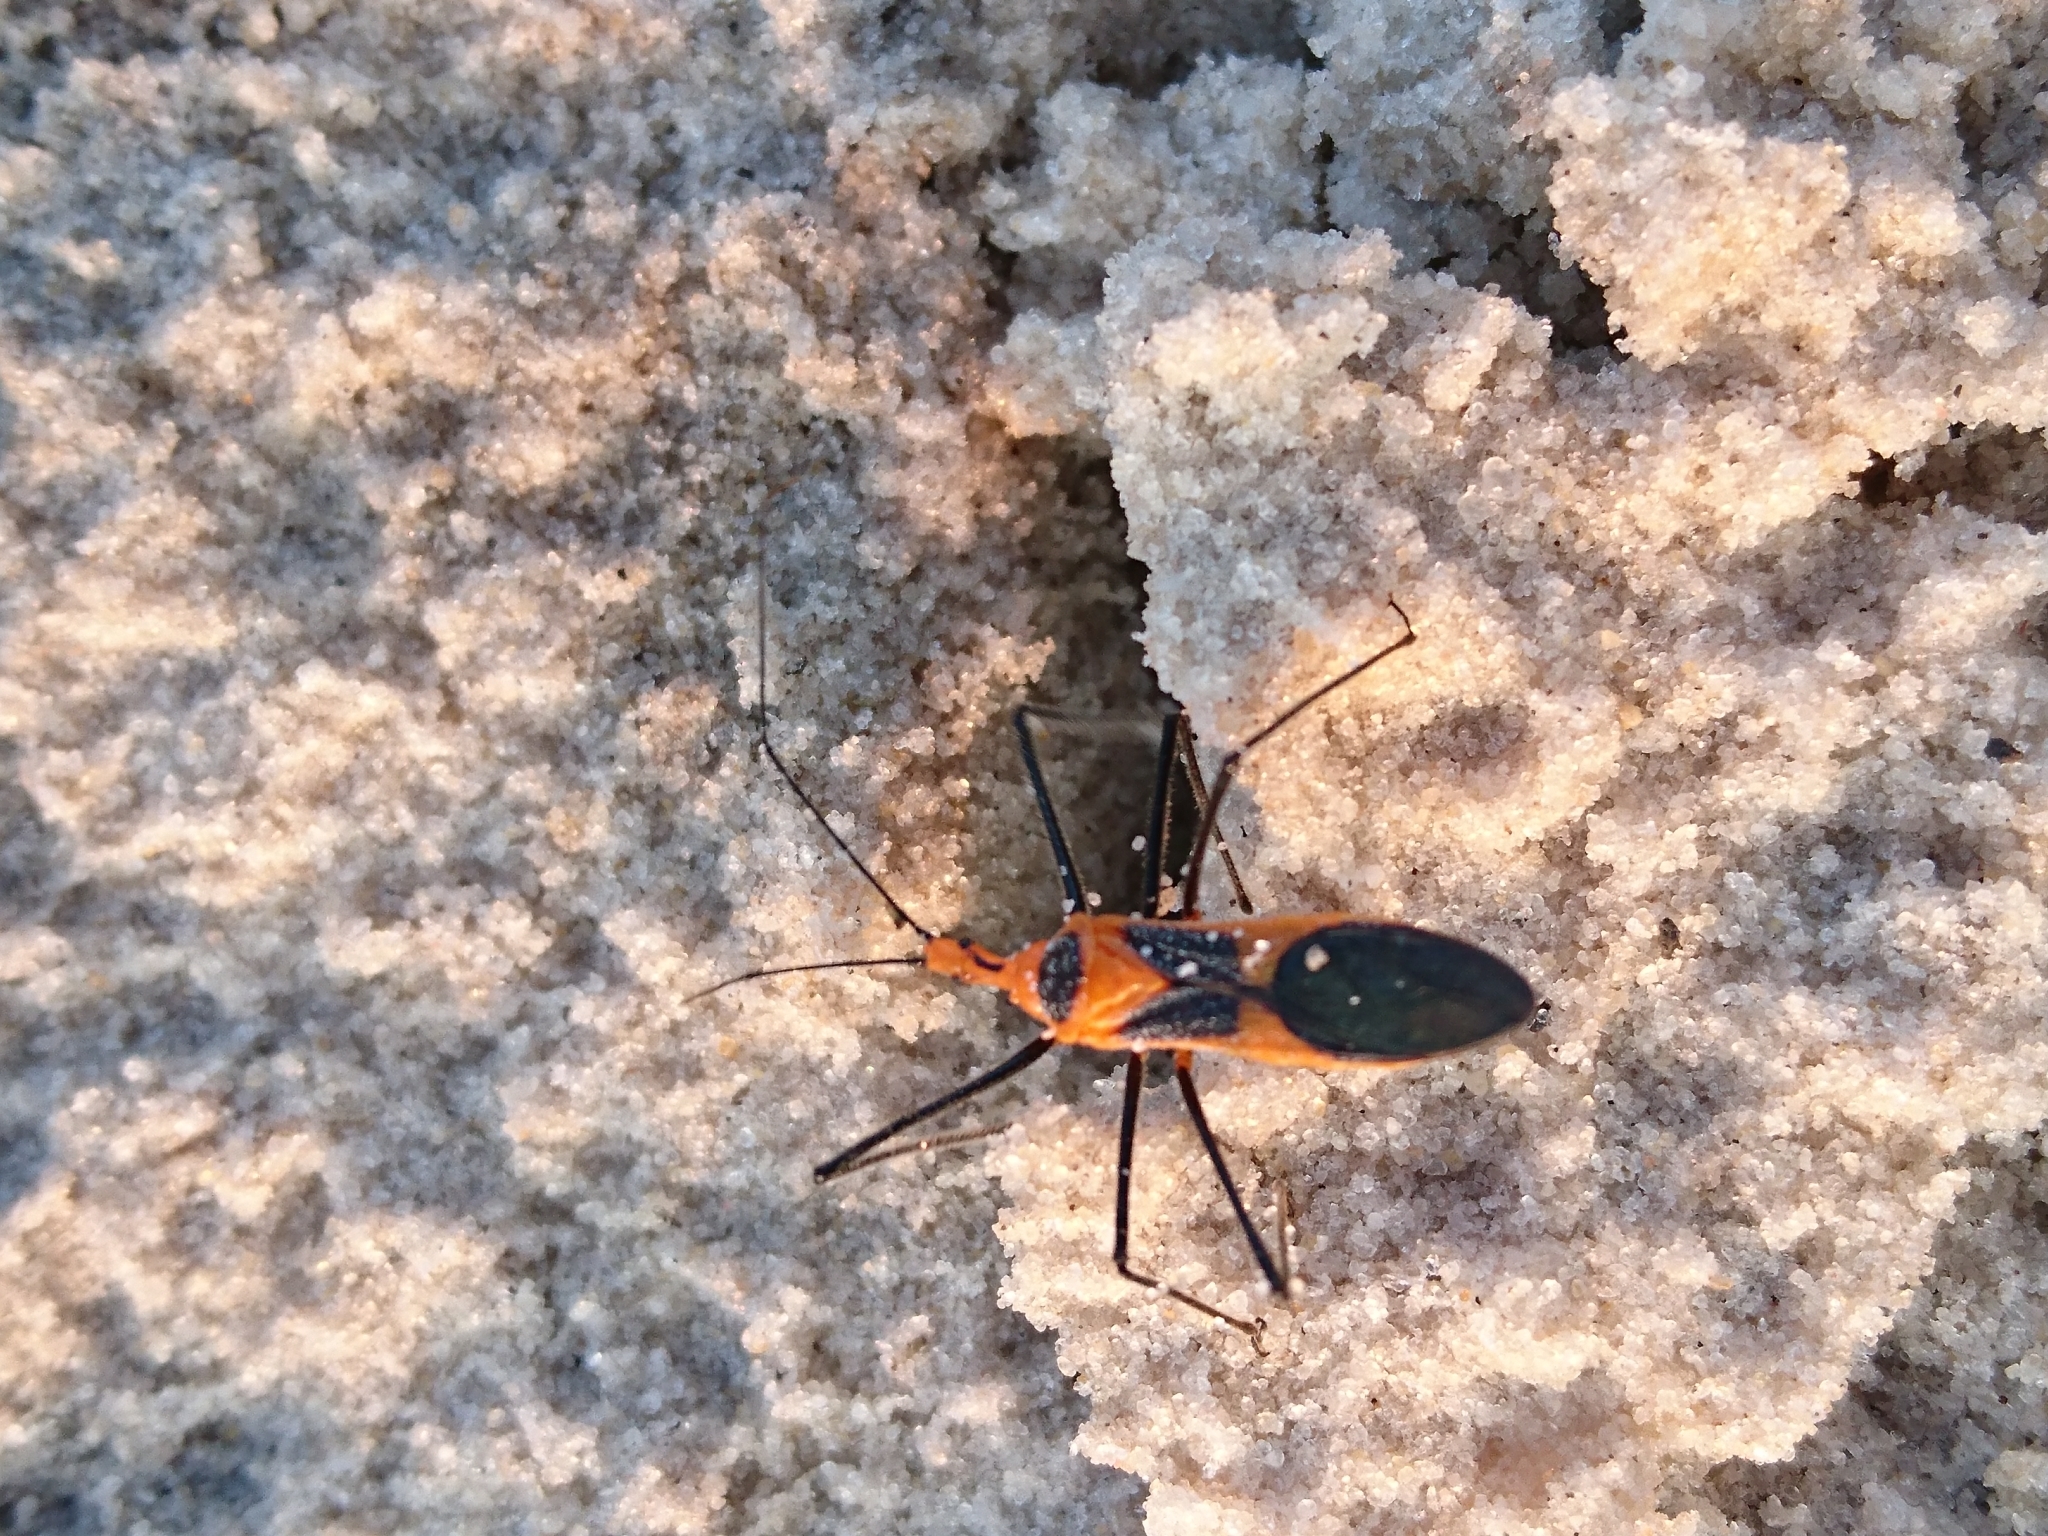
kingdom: Animalia
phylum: Arthropoda
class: Insecta
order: Hemiptera
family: Reduviidae
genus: Zelus
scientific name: Zelus longipes
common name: Milkweed assassin bug
